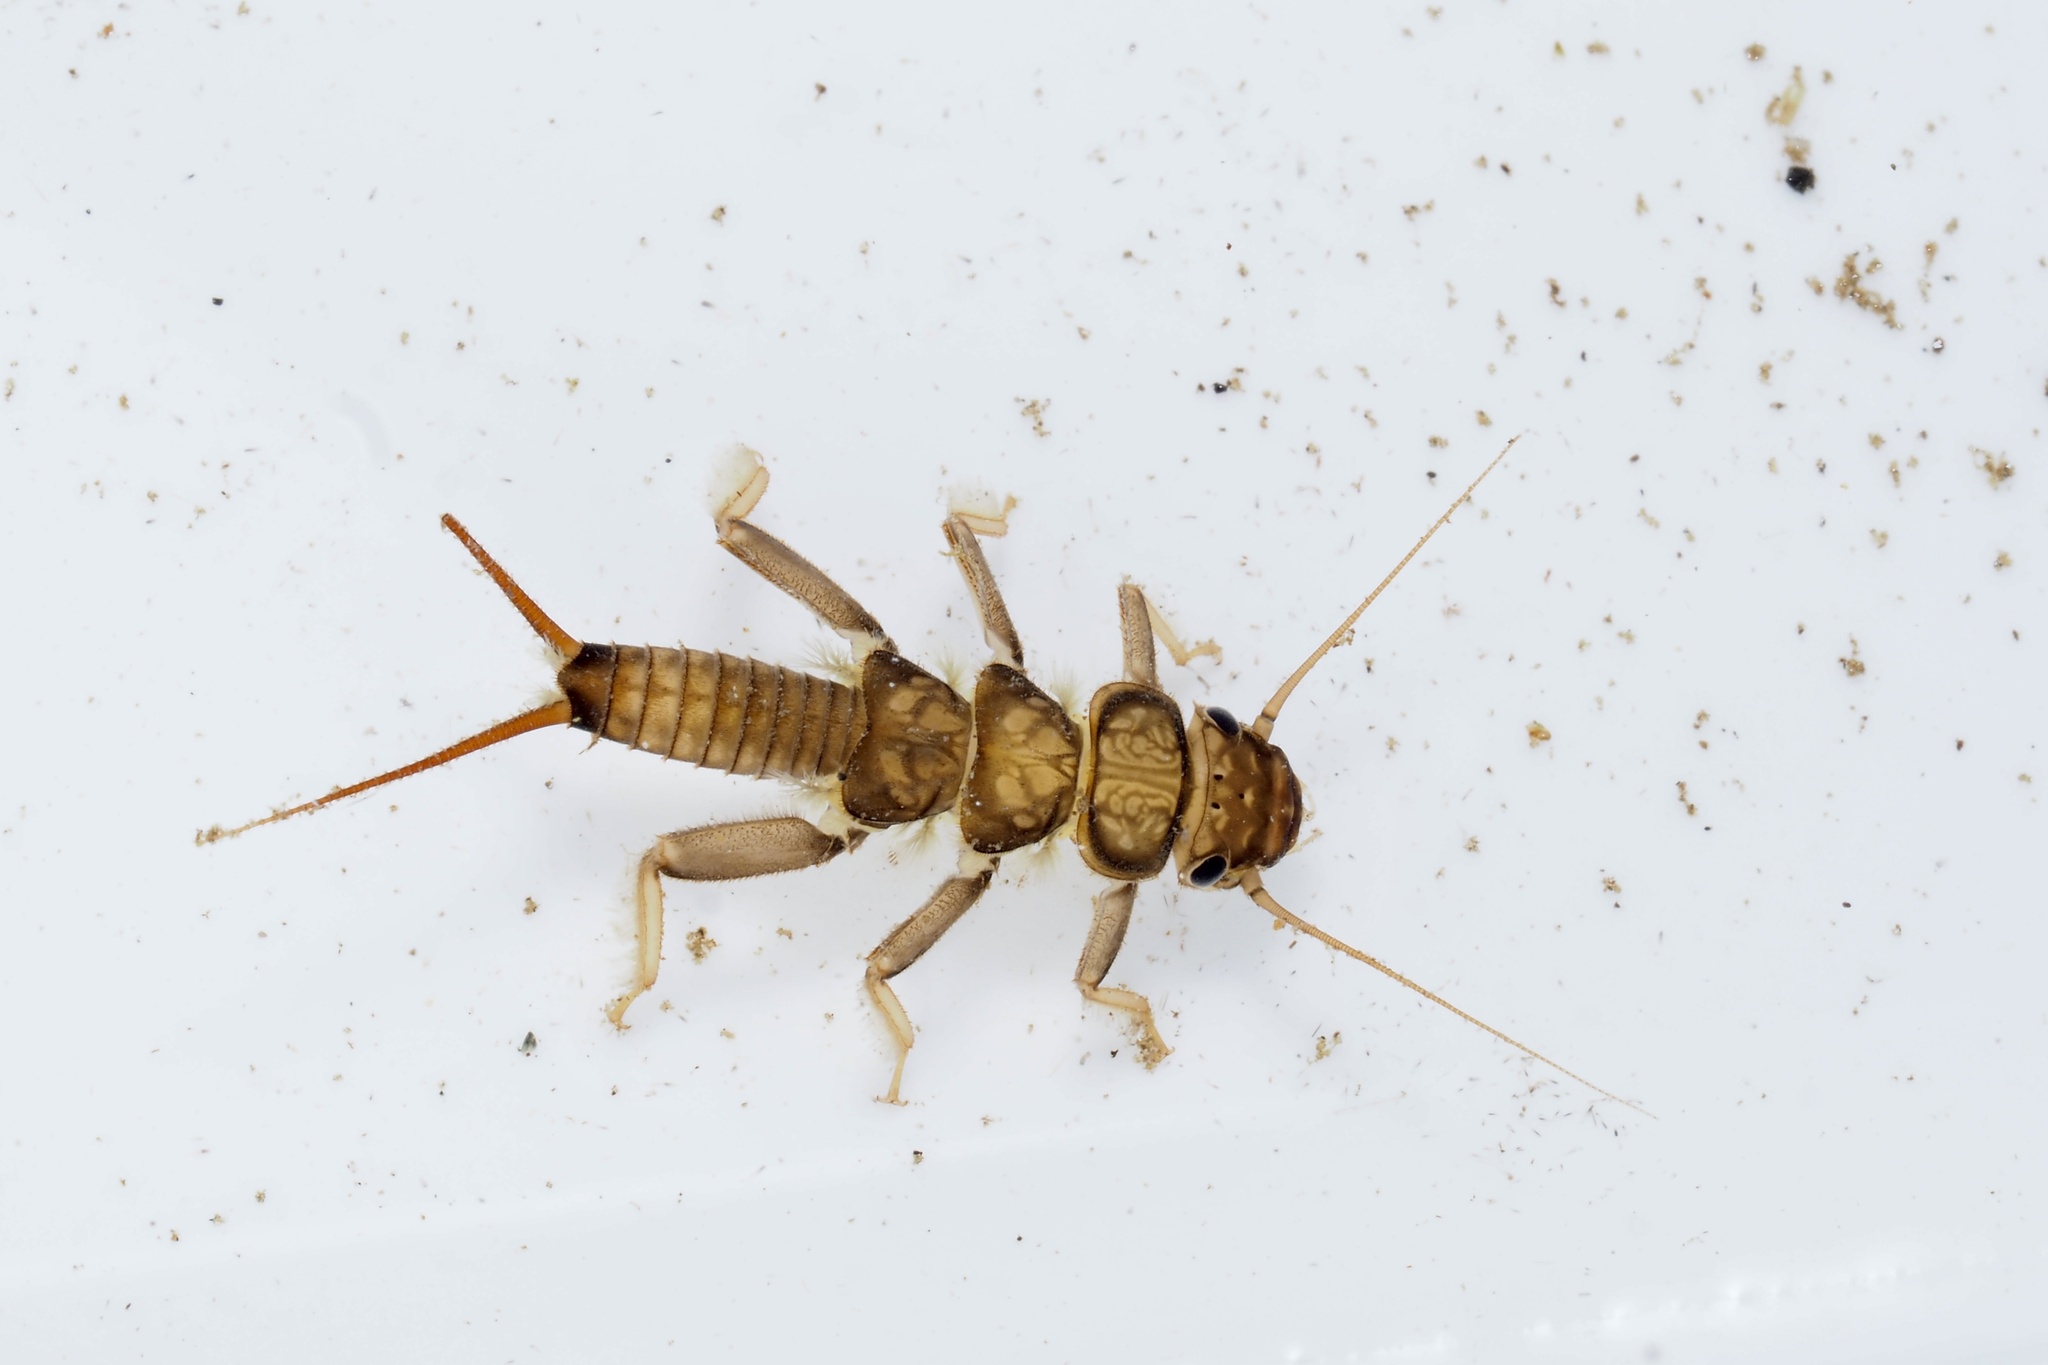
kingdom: Animalia
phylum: Arthropoda
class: Insecta
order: Plecoptera
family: Perlidae
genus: Oyamia
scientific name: Oyamia lugubris
